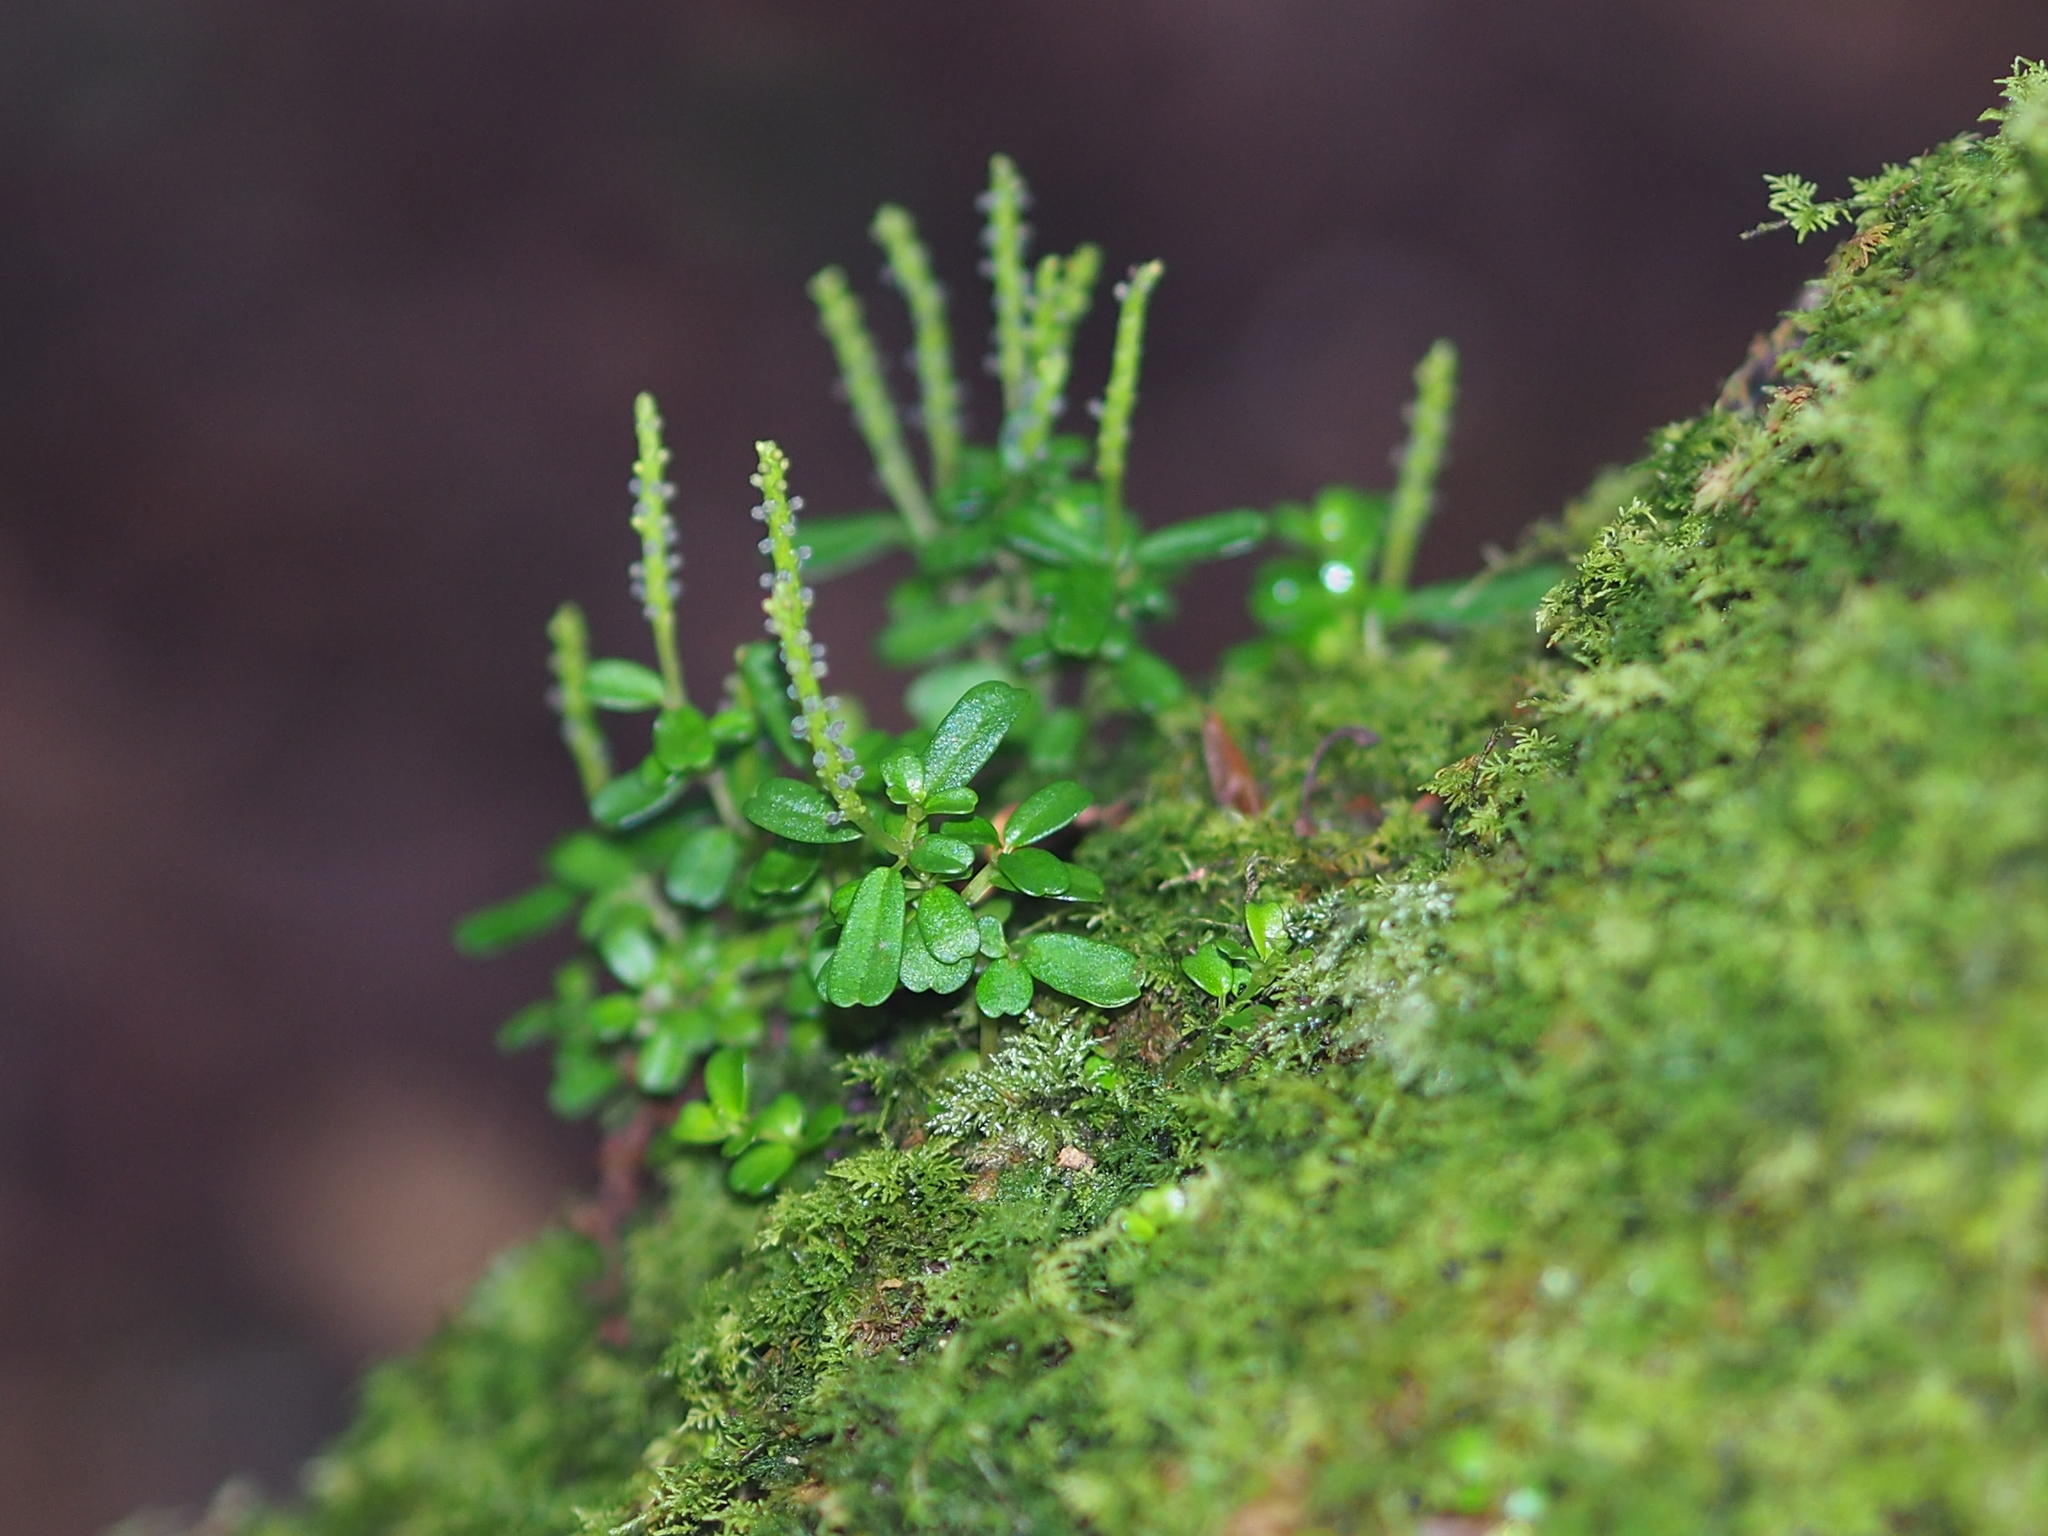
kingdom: Plantae
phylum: Tracheophyta
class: Magnoliopsida
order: Piperales
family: Piperaceae
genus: Peperomia
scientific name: Peperomia nakaharai
